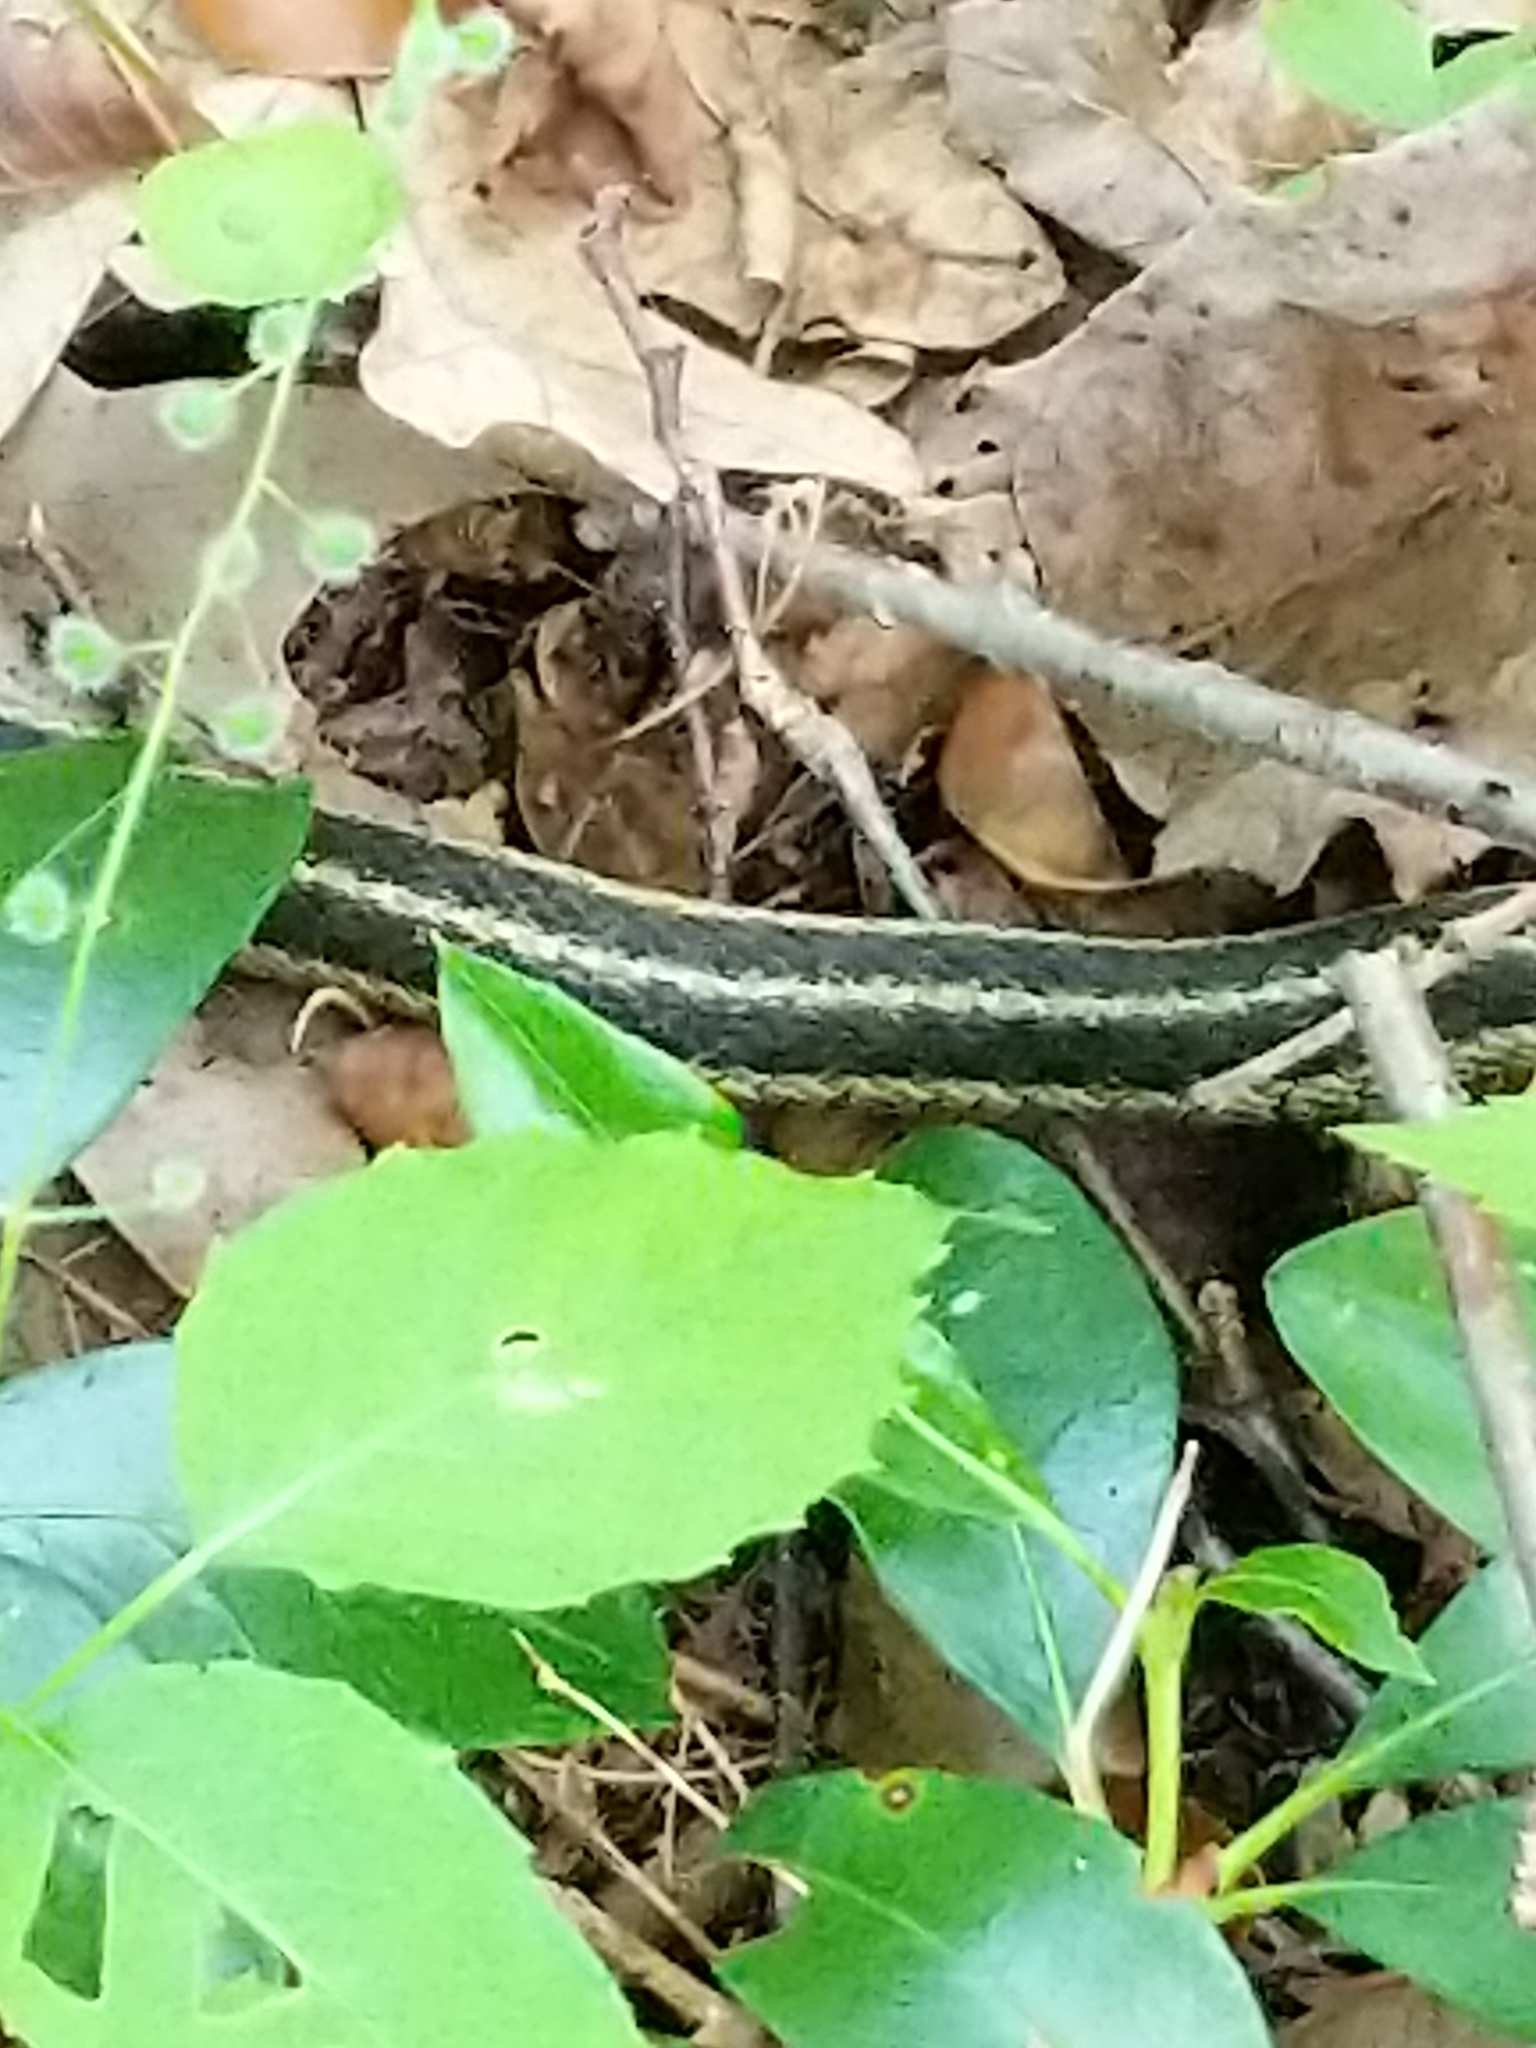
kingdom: Animalia
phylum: Chordata
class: Squamata
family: Colubridae
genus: Thamnophis
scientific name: Thamnophis sirtalis
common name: Common garter snake
